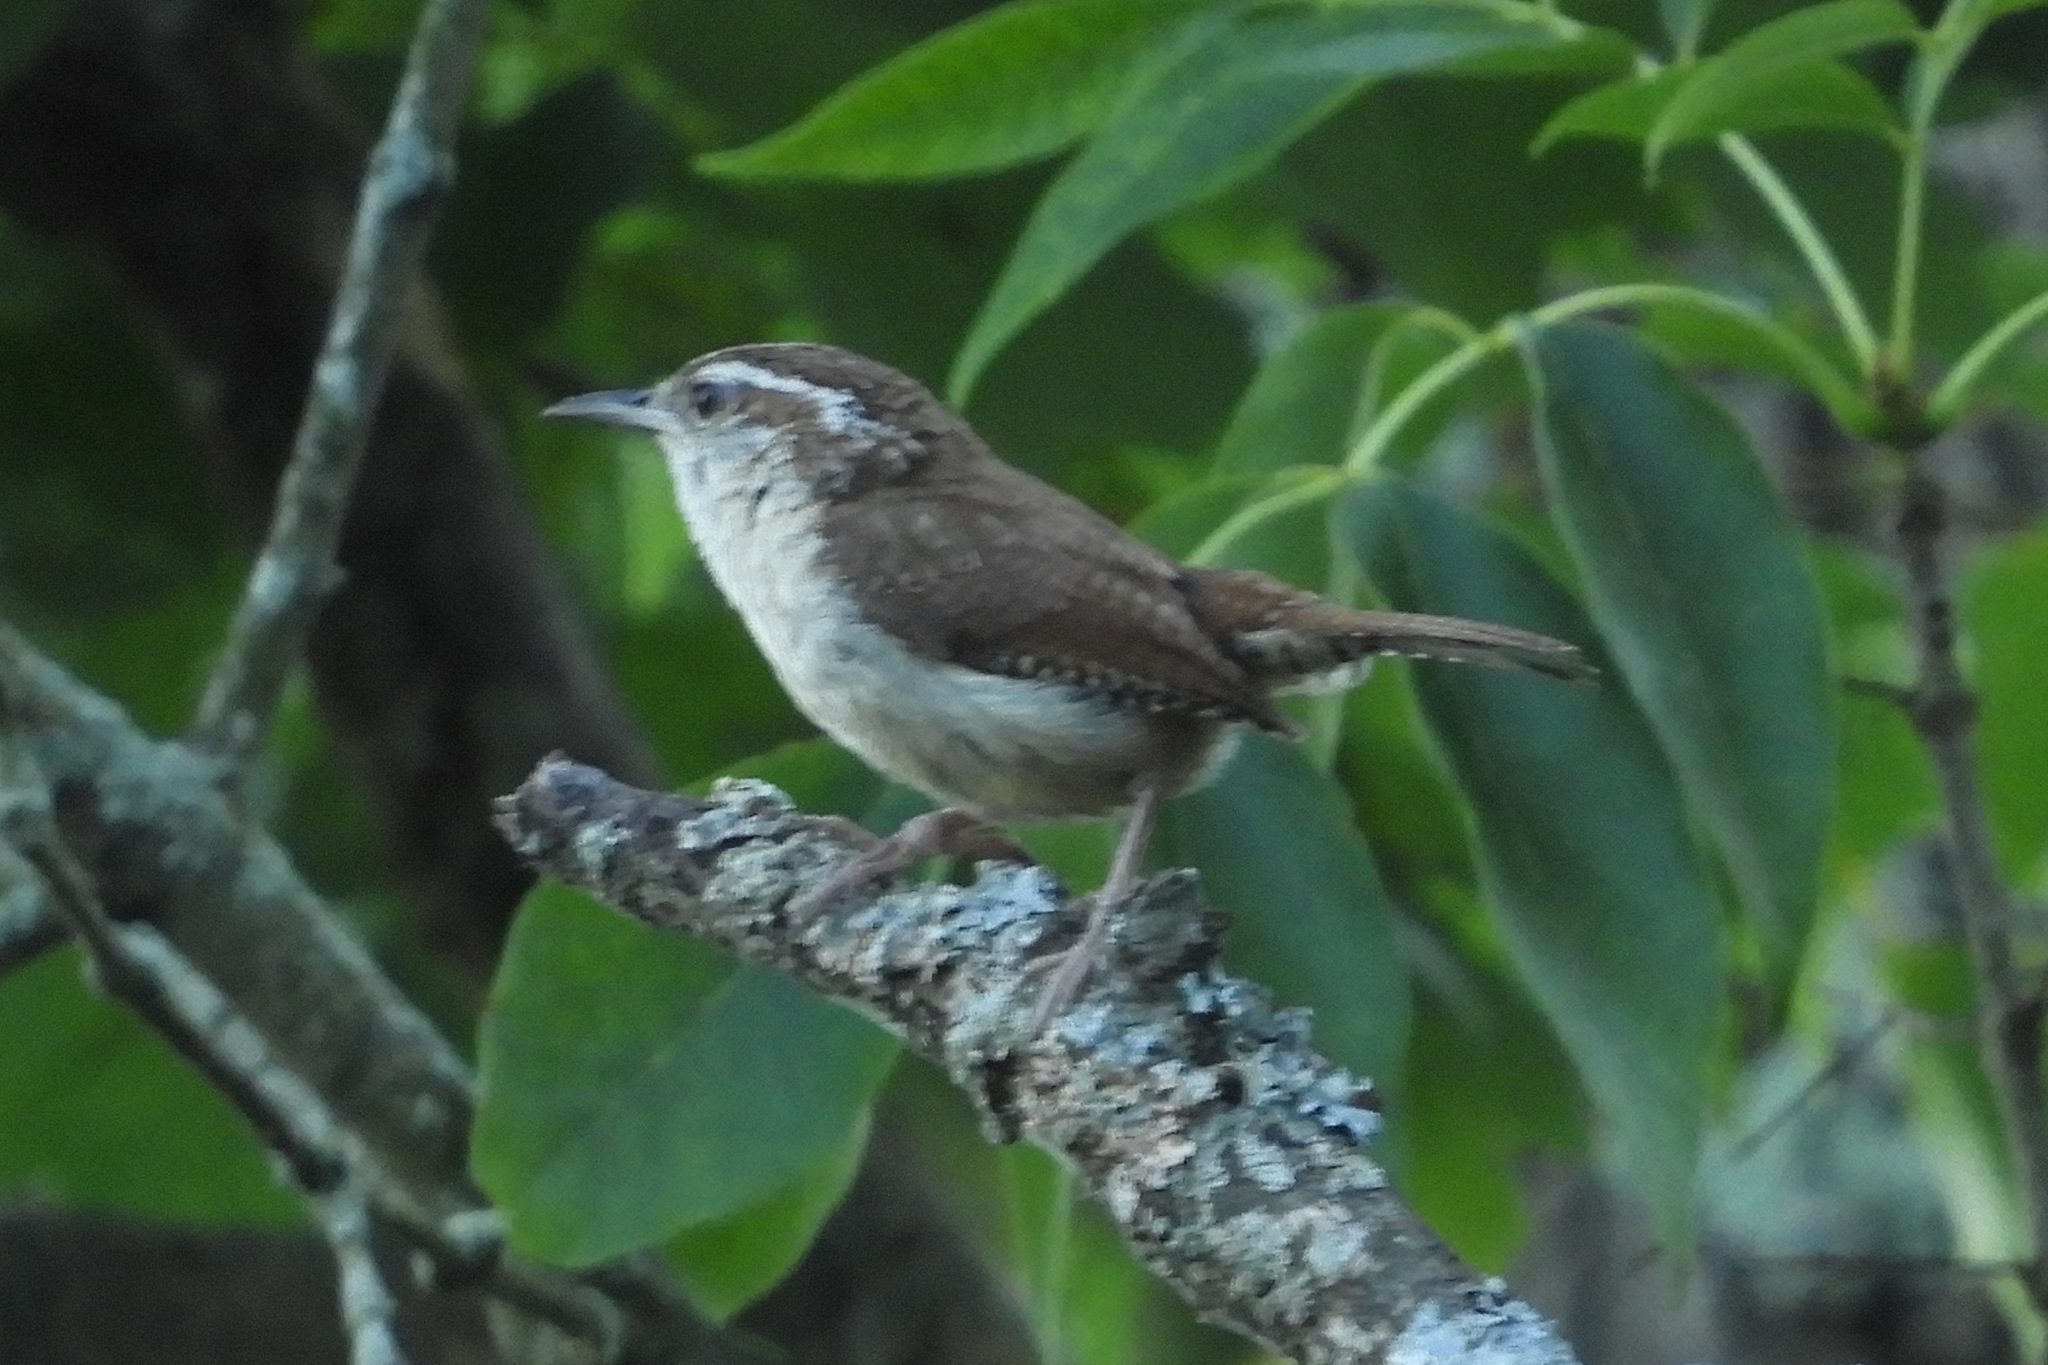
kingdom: Animalia
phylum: Chordata
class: Aves
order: Passeriformes
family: Troglodytidae
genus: Thryothorus
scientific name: Thryothorus ludovicianus
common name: Carolina wren
